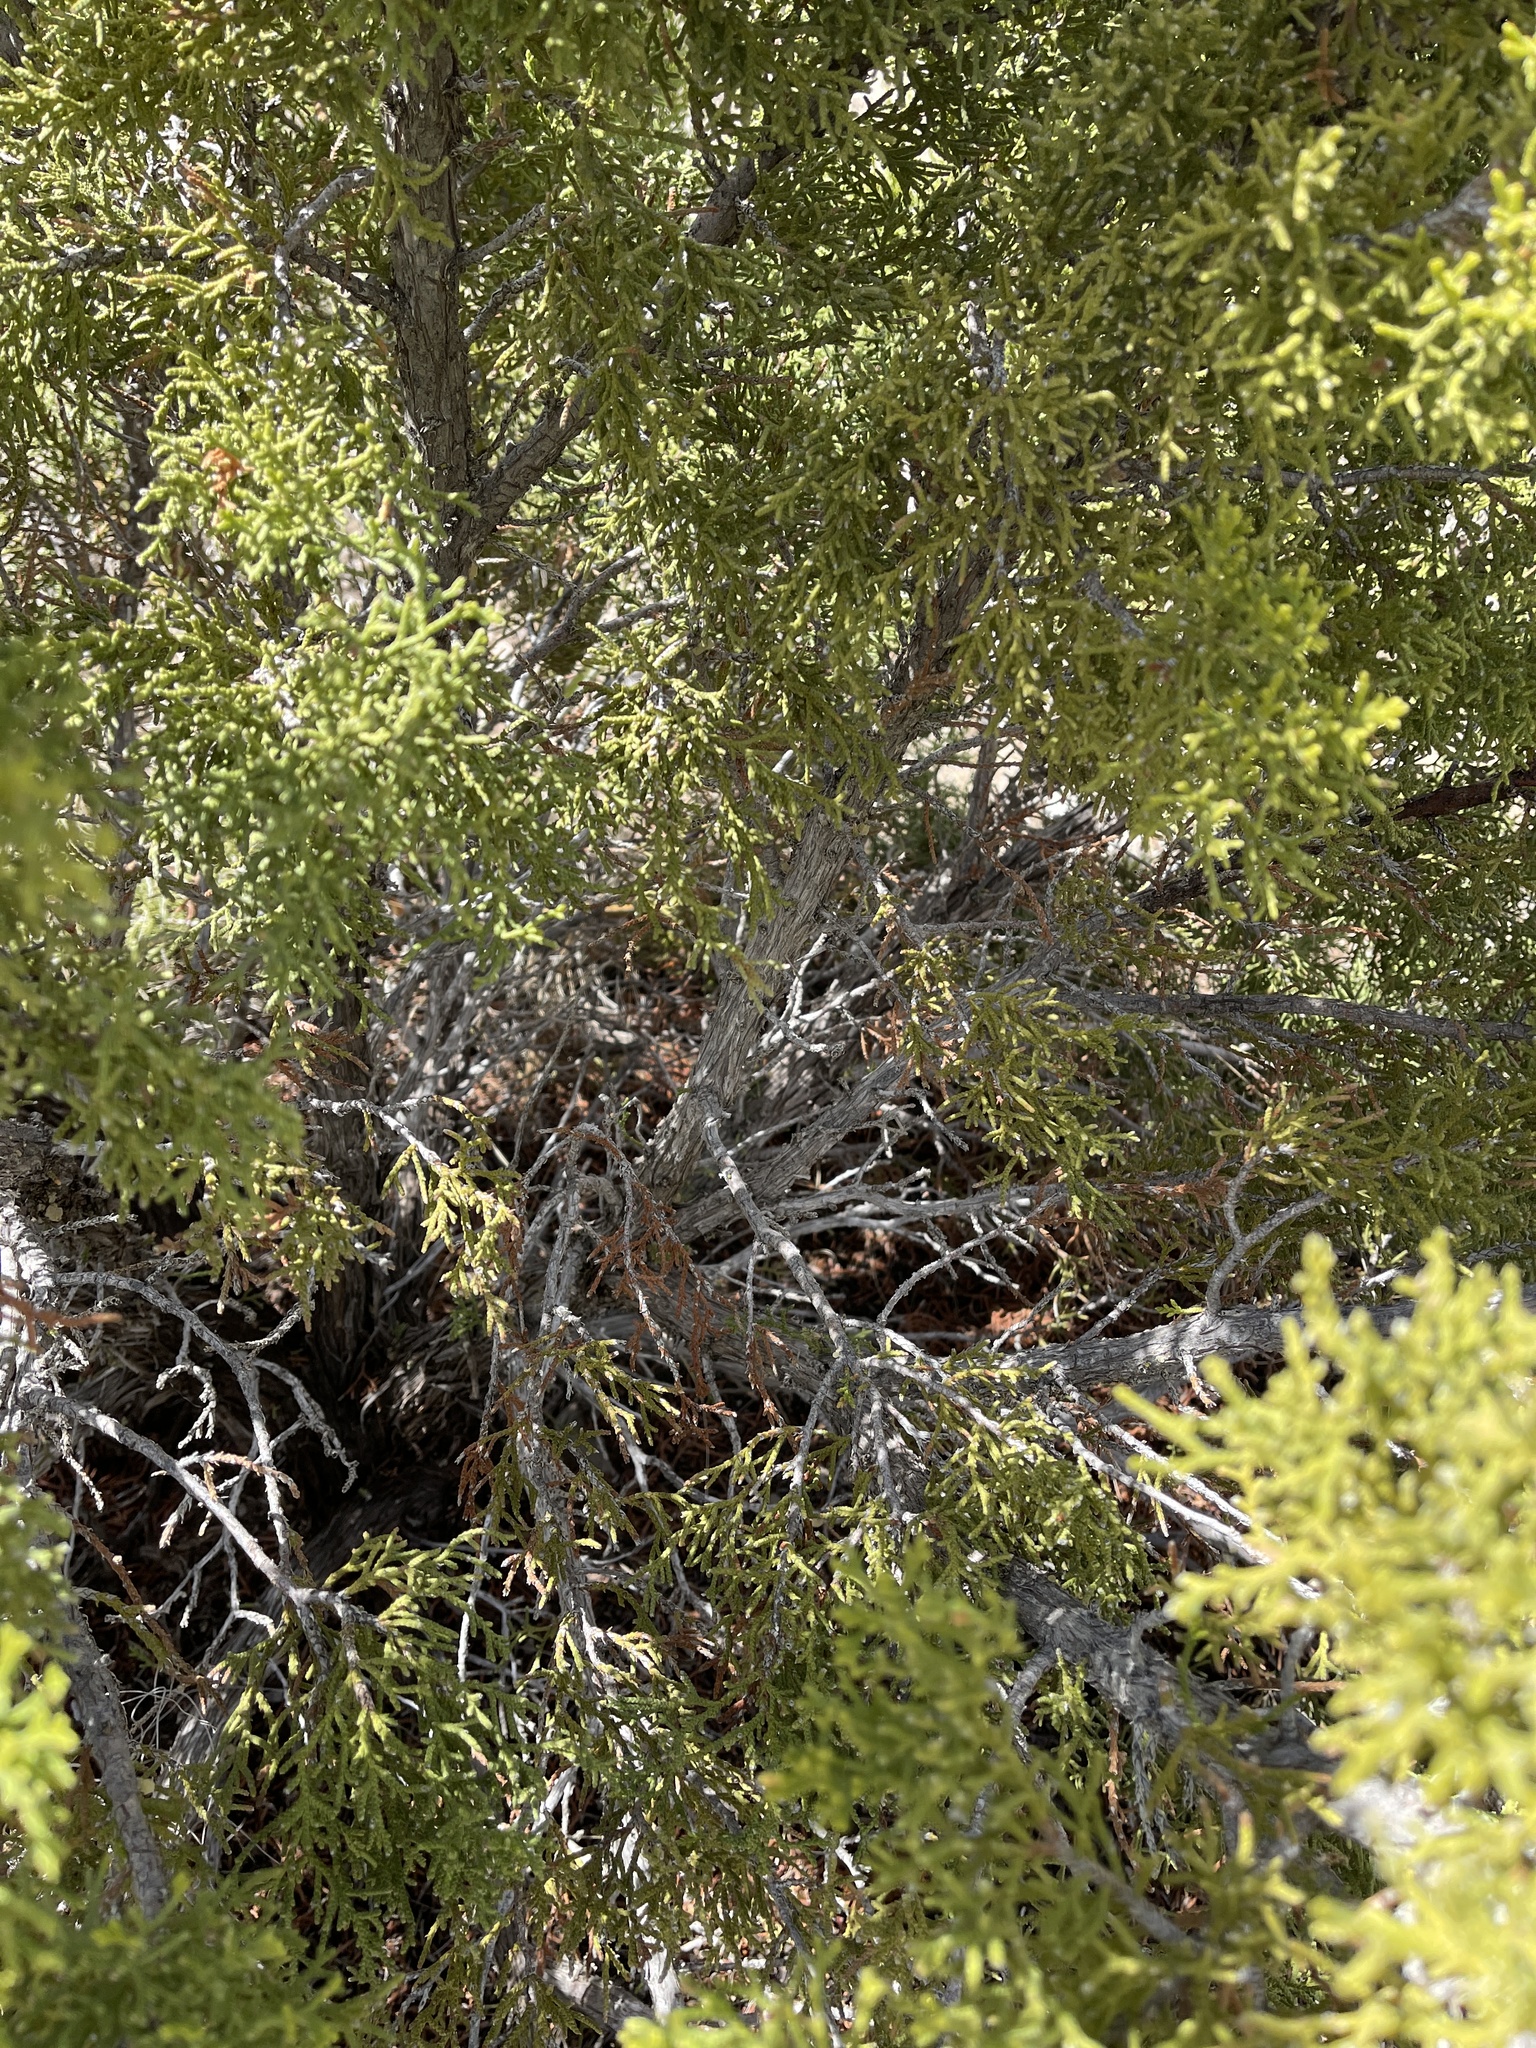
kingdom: Plantae
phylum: Tracheophyta
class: Pinopsida
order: Pinales
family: Cupressaceae
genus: Juniperus
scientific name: Juniperus monosperma
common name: One-seed juniper
